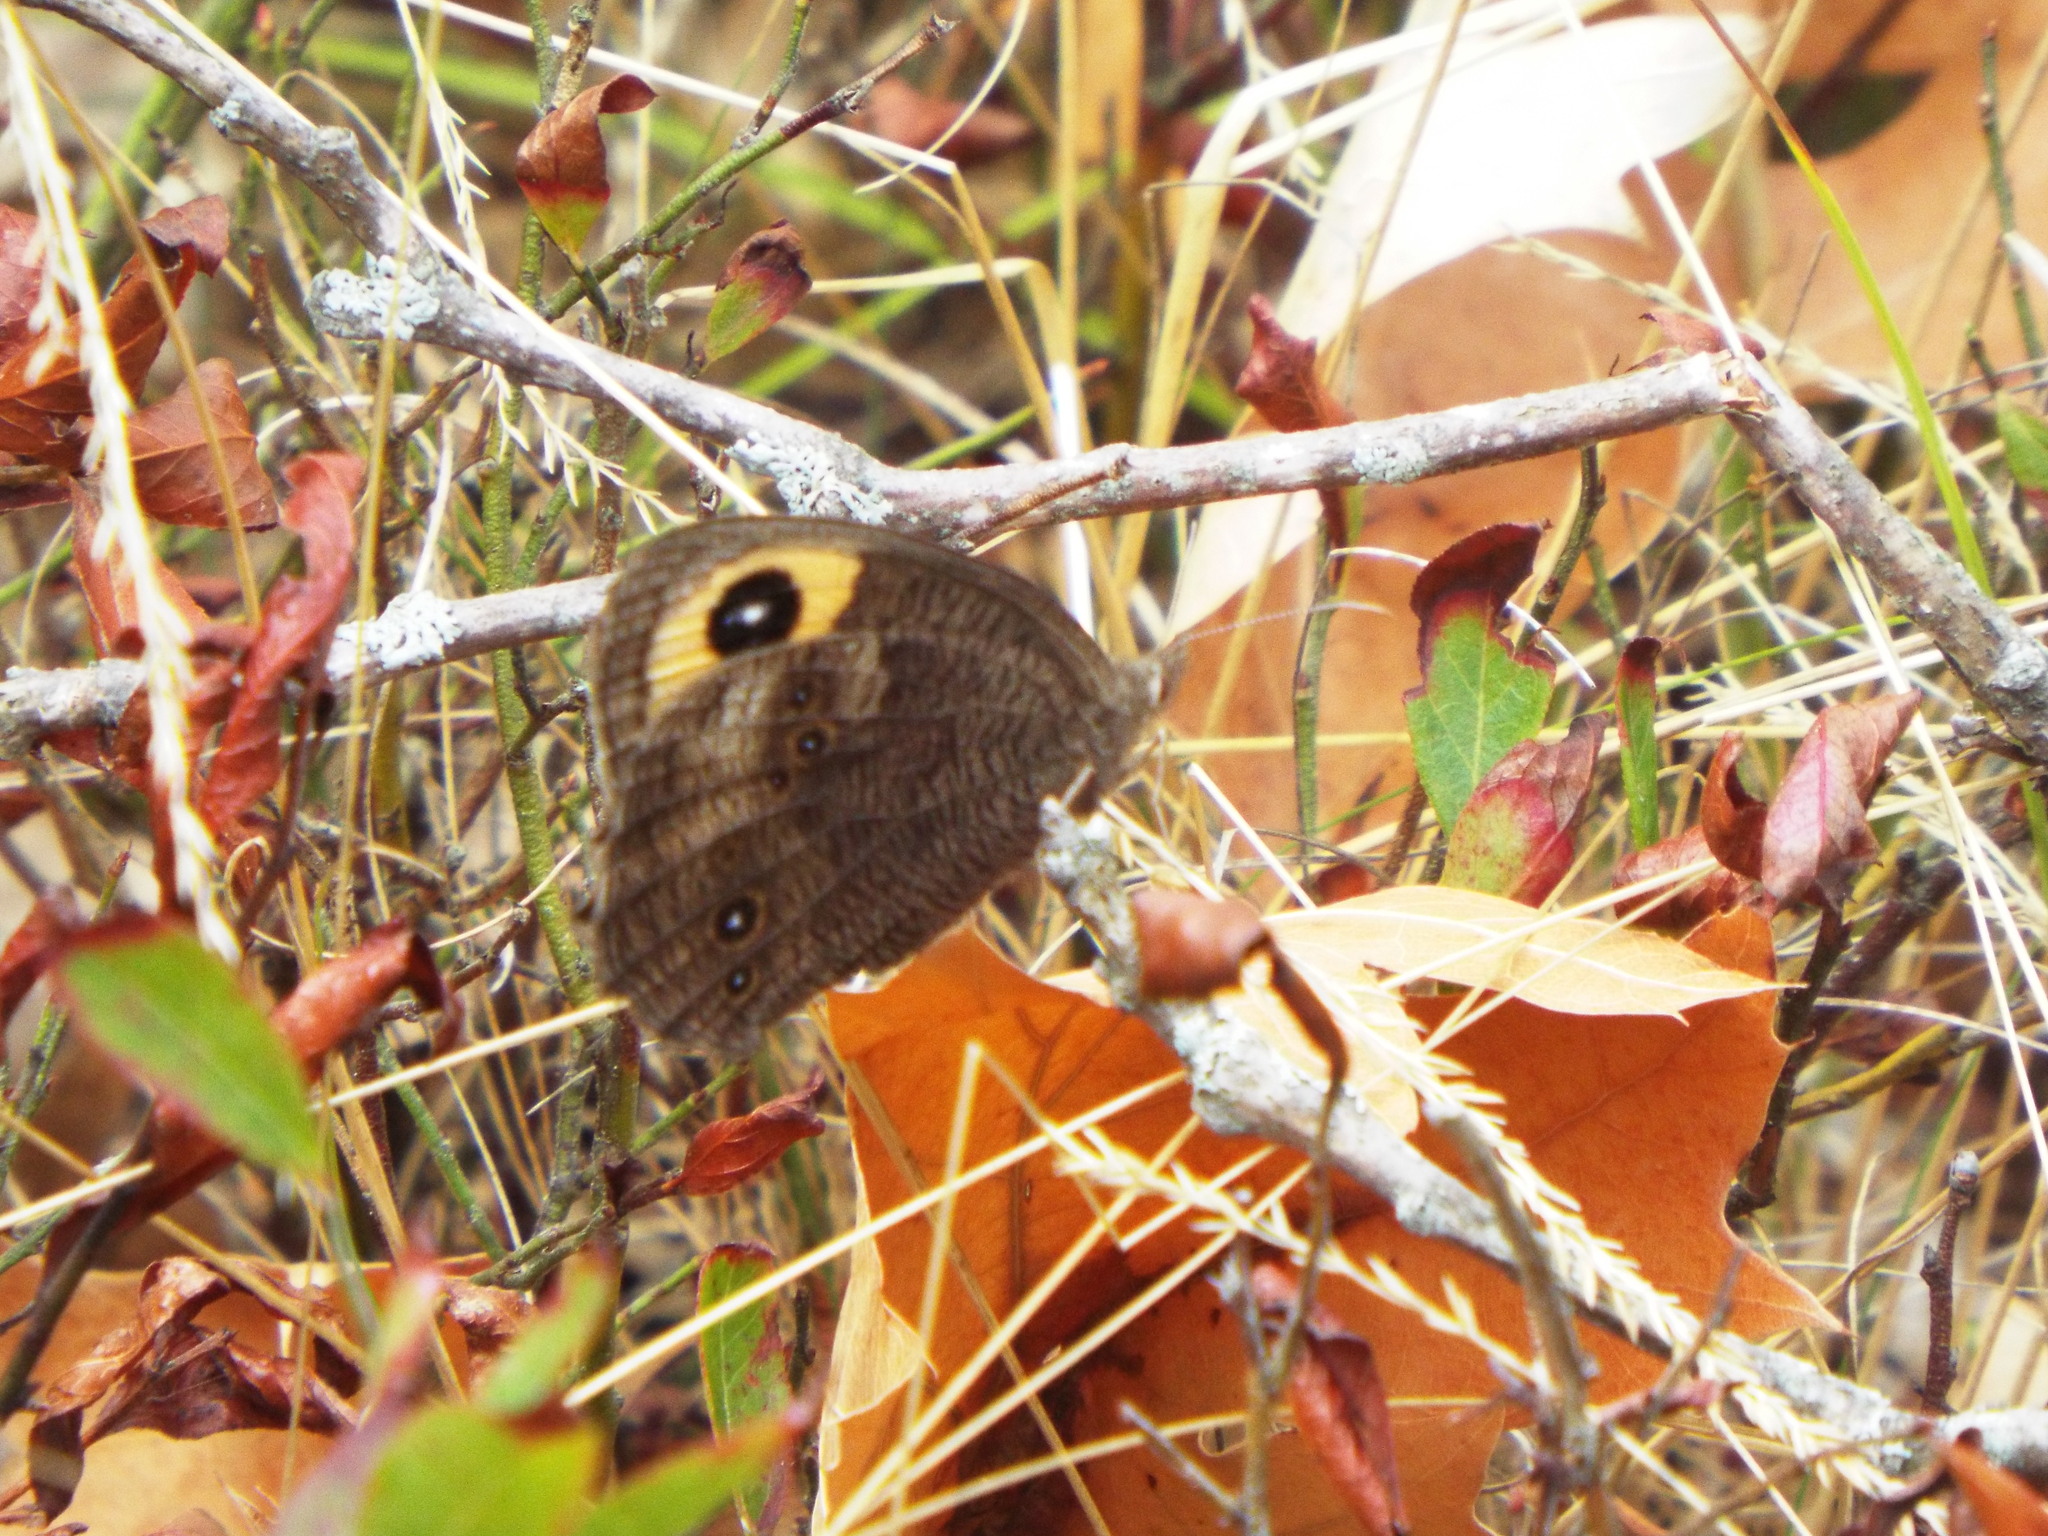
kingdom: Animalia
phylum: Arthropoda
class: Insecta
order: Lepidoptera
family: Nymphalidae
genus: Cercyonis
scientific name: Cercyonis pegala
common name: Common wood-nymph
